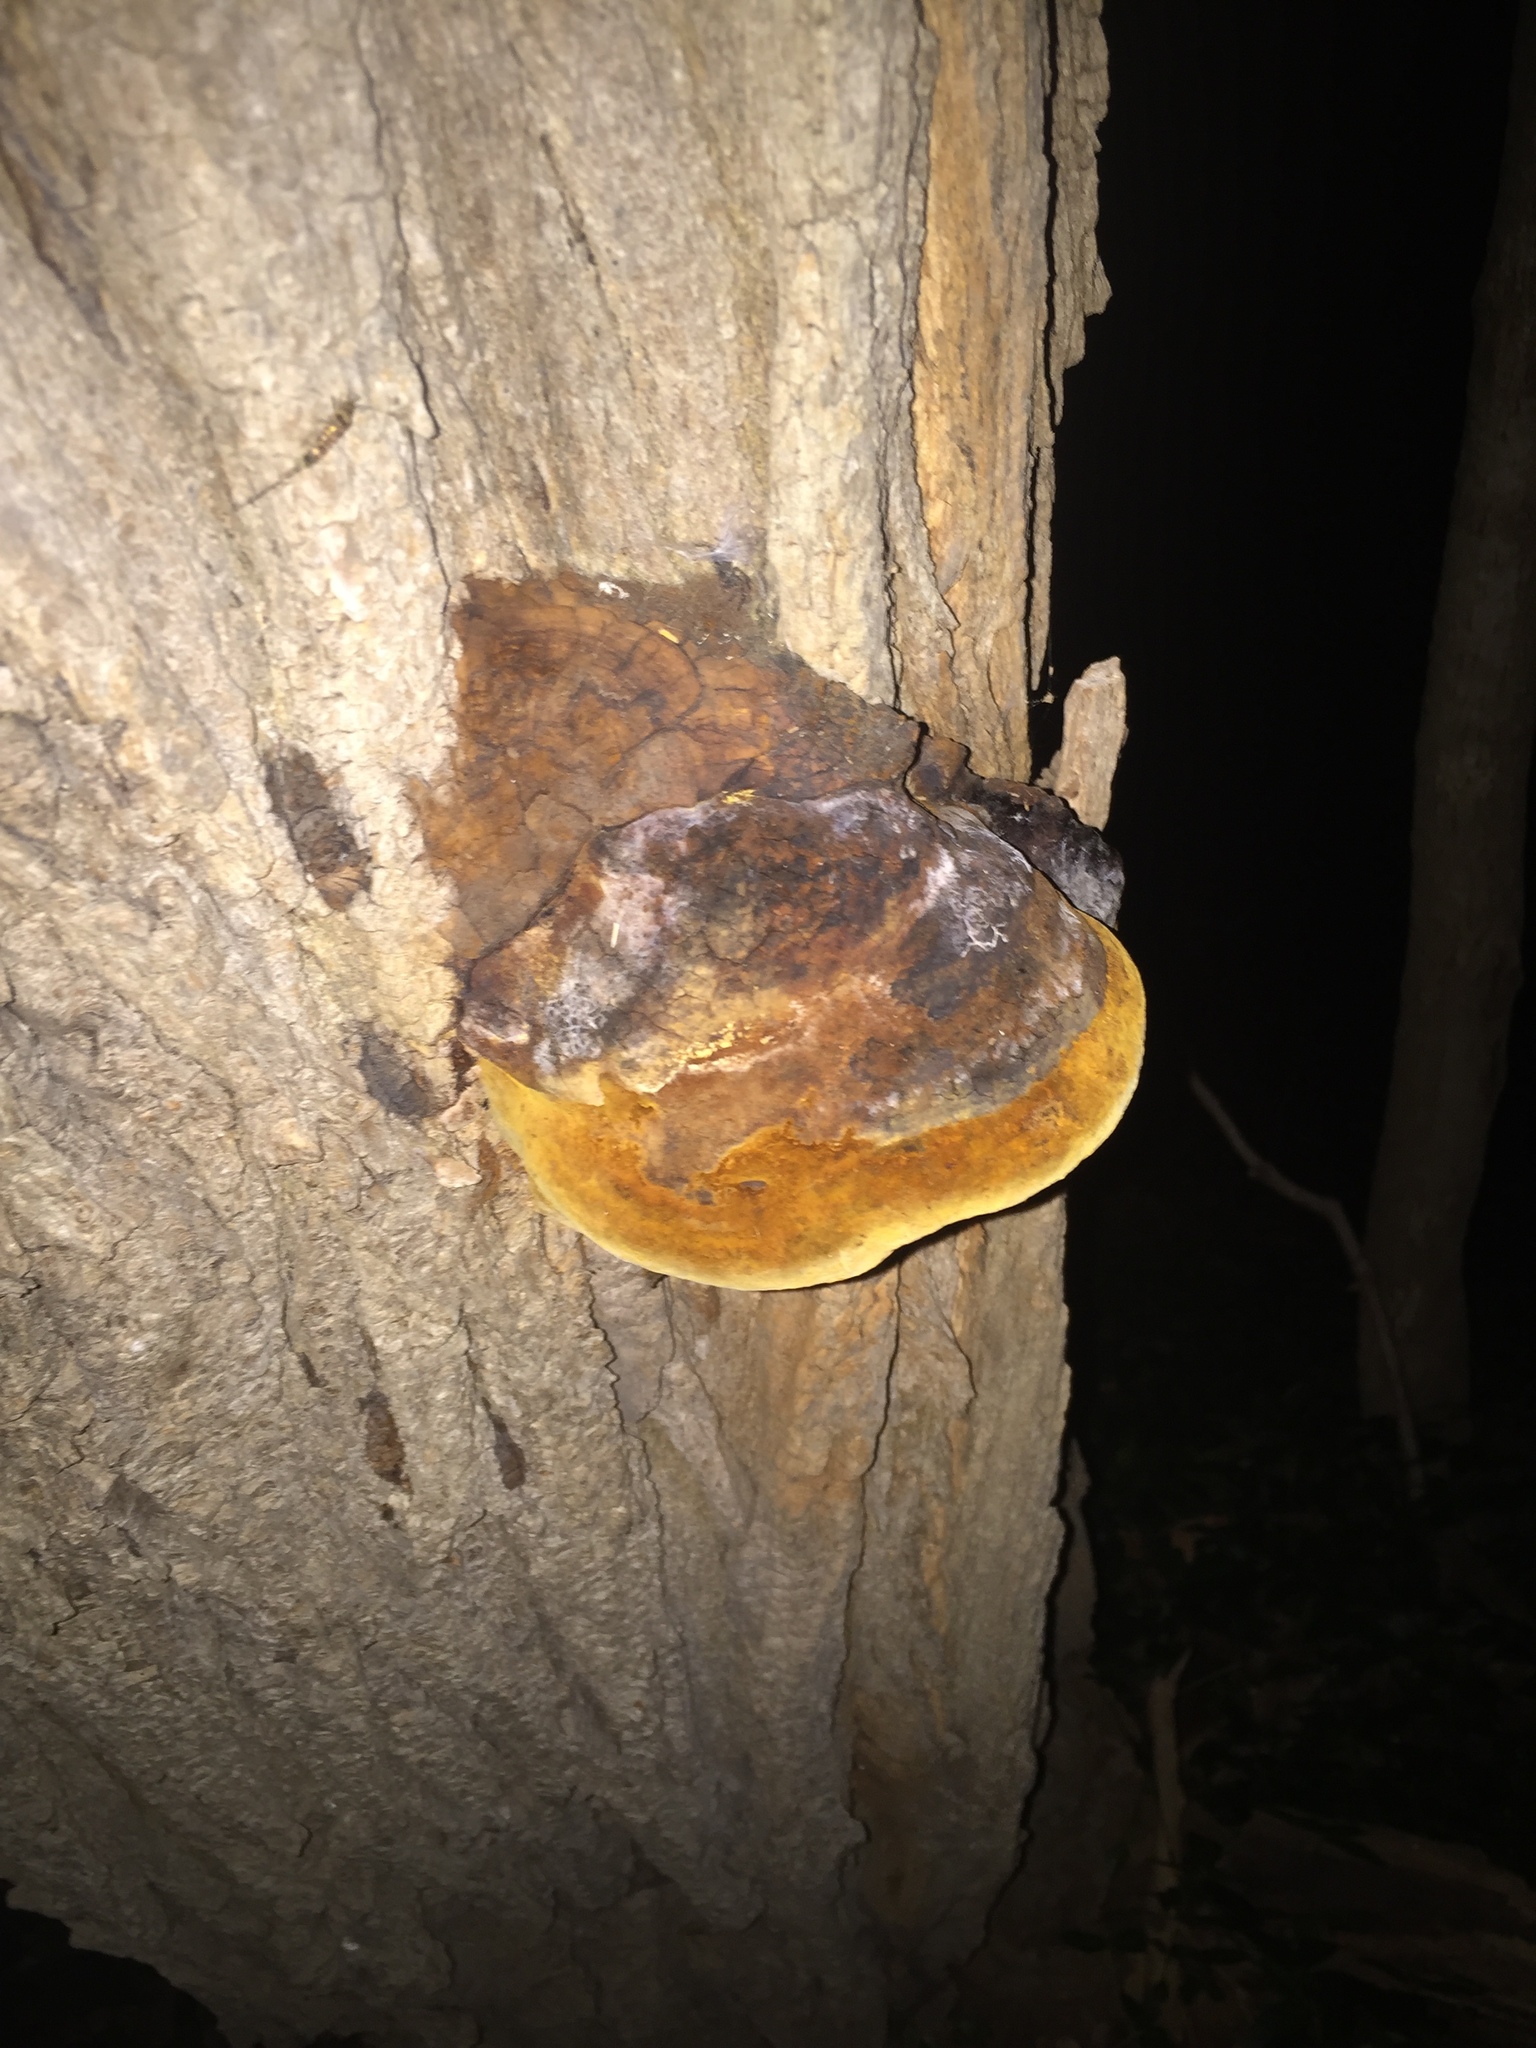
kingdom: Fungi
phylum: Basidiomycota
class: Agaricomycetes
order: Hymenochaetales
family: Hymenochaetaceae
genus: Phellinus
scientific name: Phellinus robiniae
